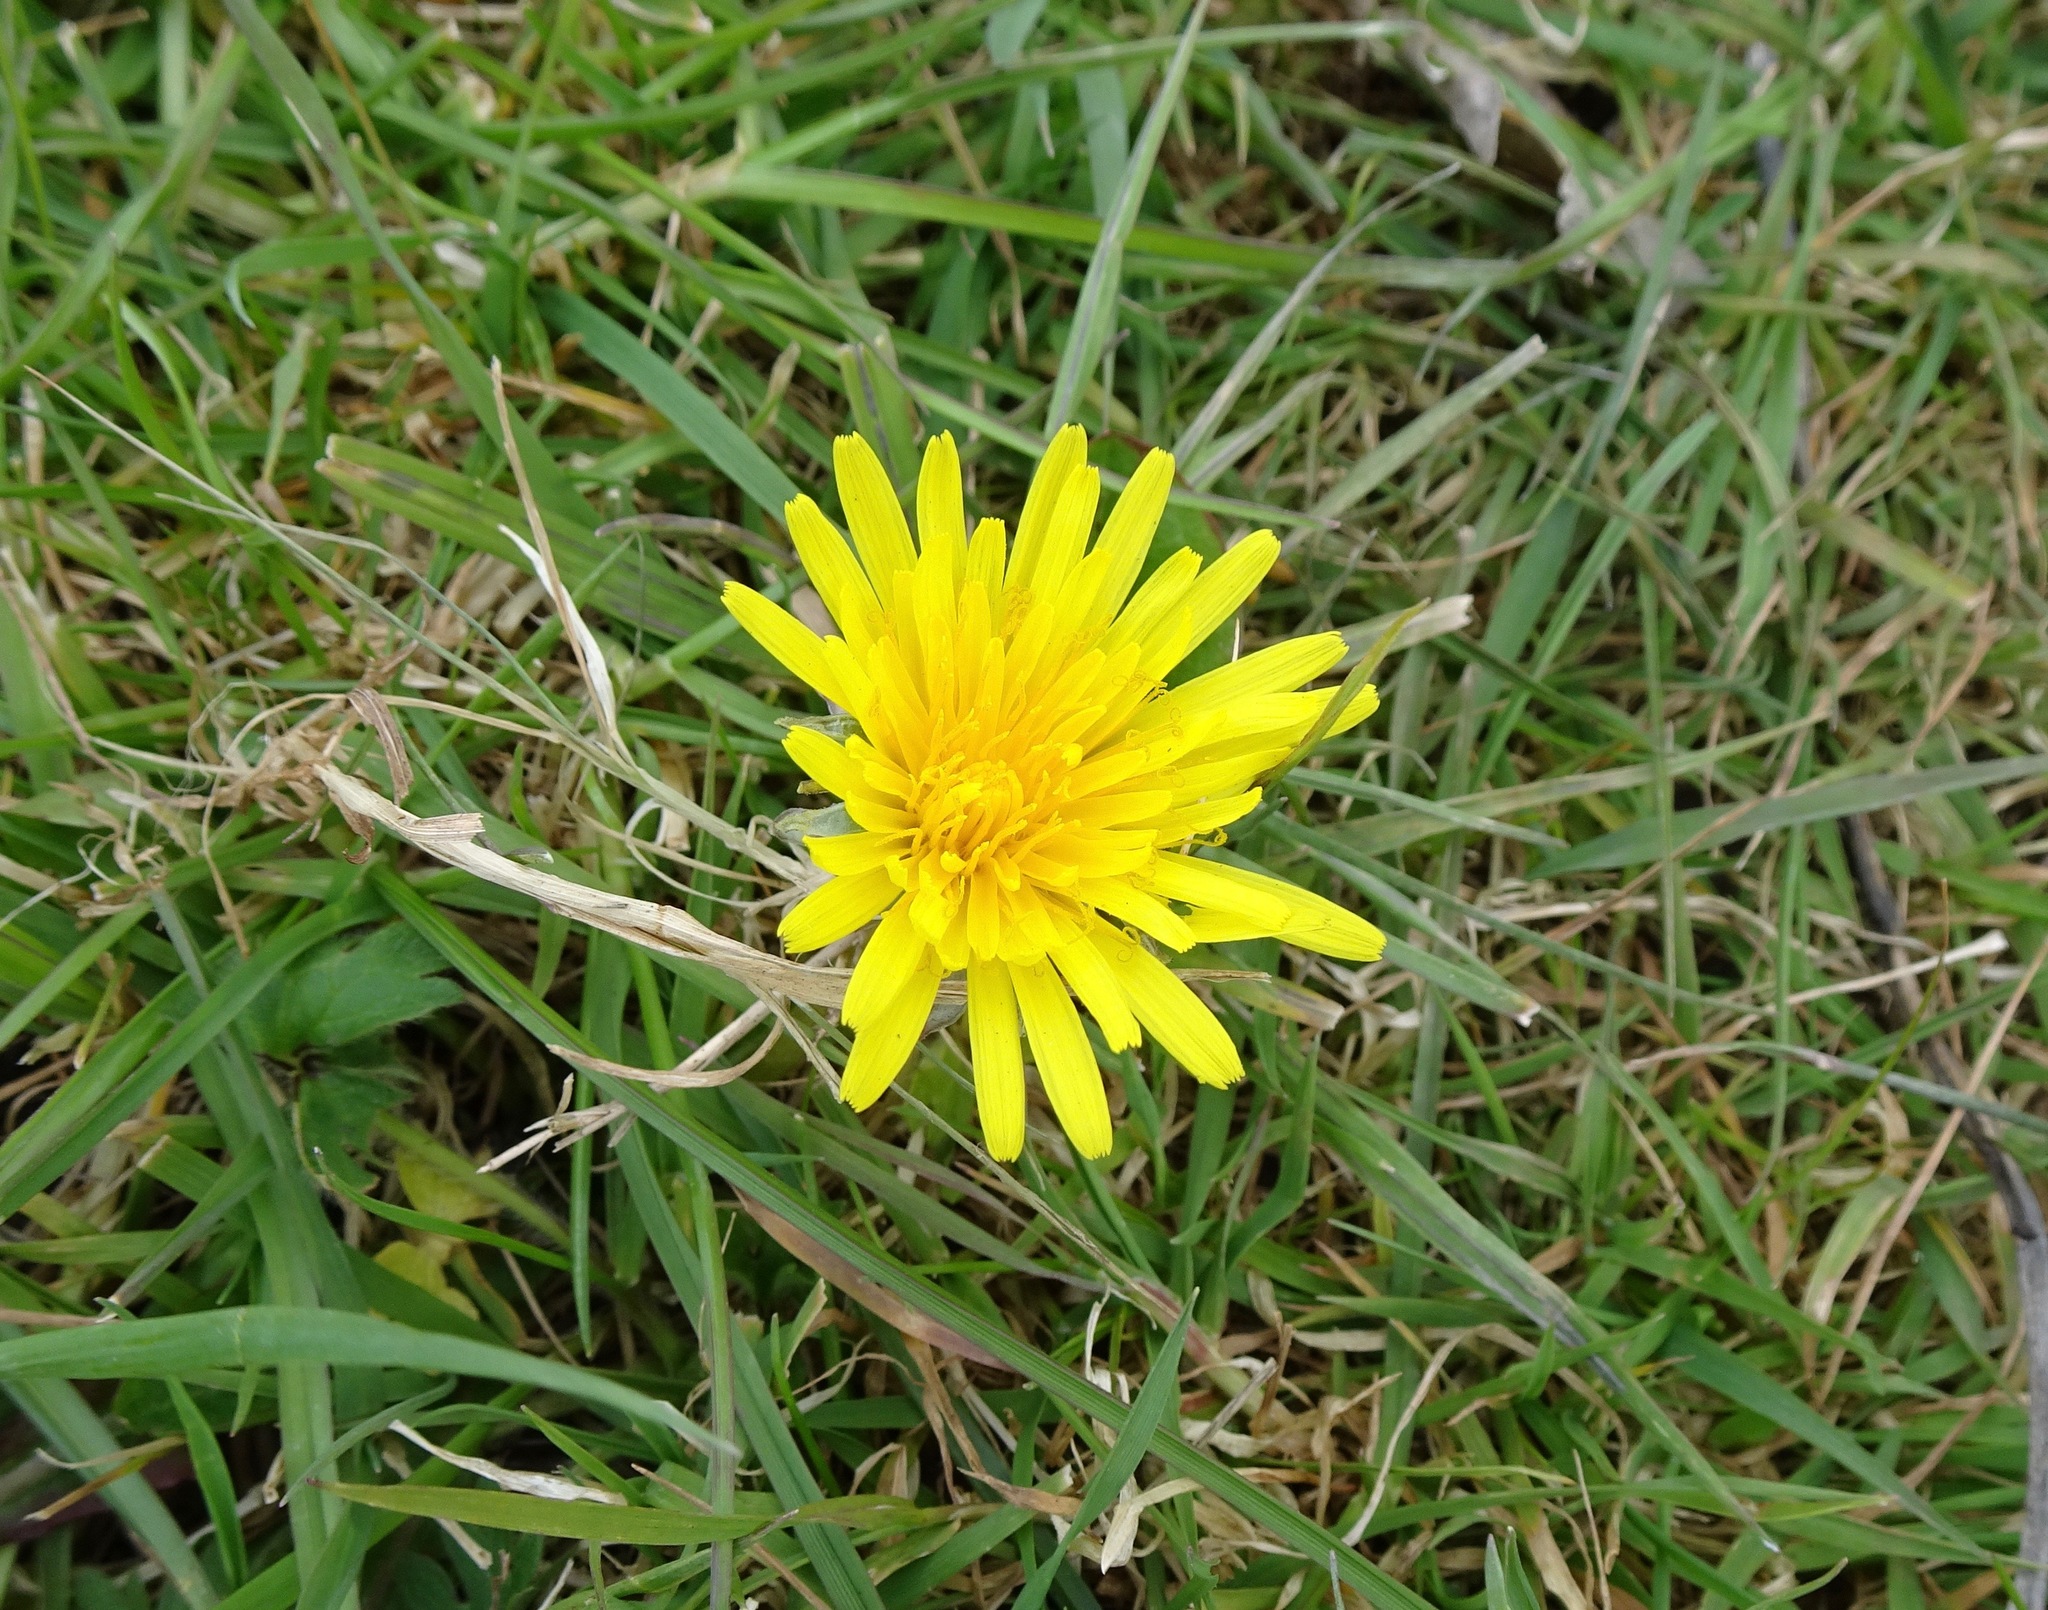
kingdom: Plantae
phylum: Tracheophyta
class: Magnoliopsida
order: Asterales
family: Asteraceae
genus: Taraxacum
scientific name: Taraxacum officinale
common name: Common dandelion
